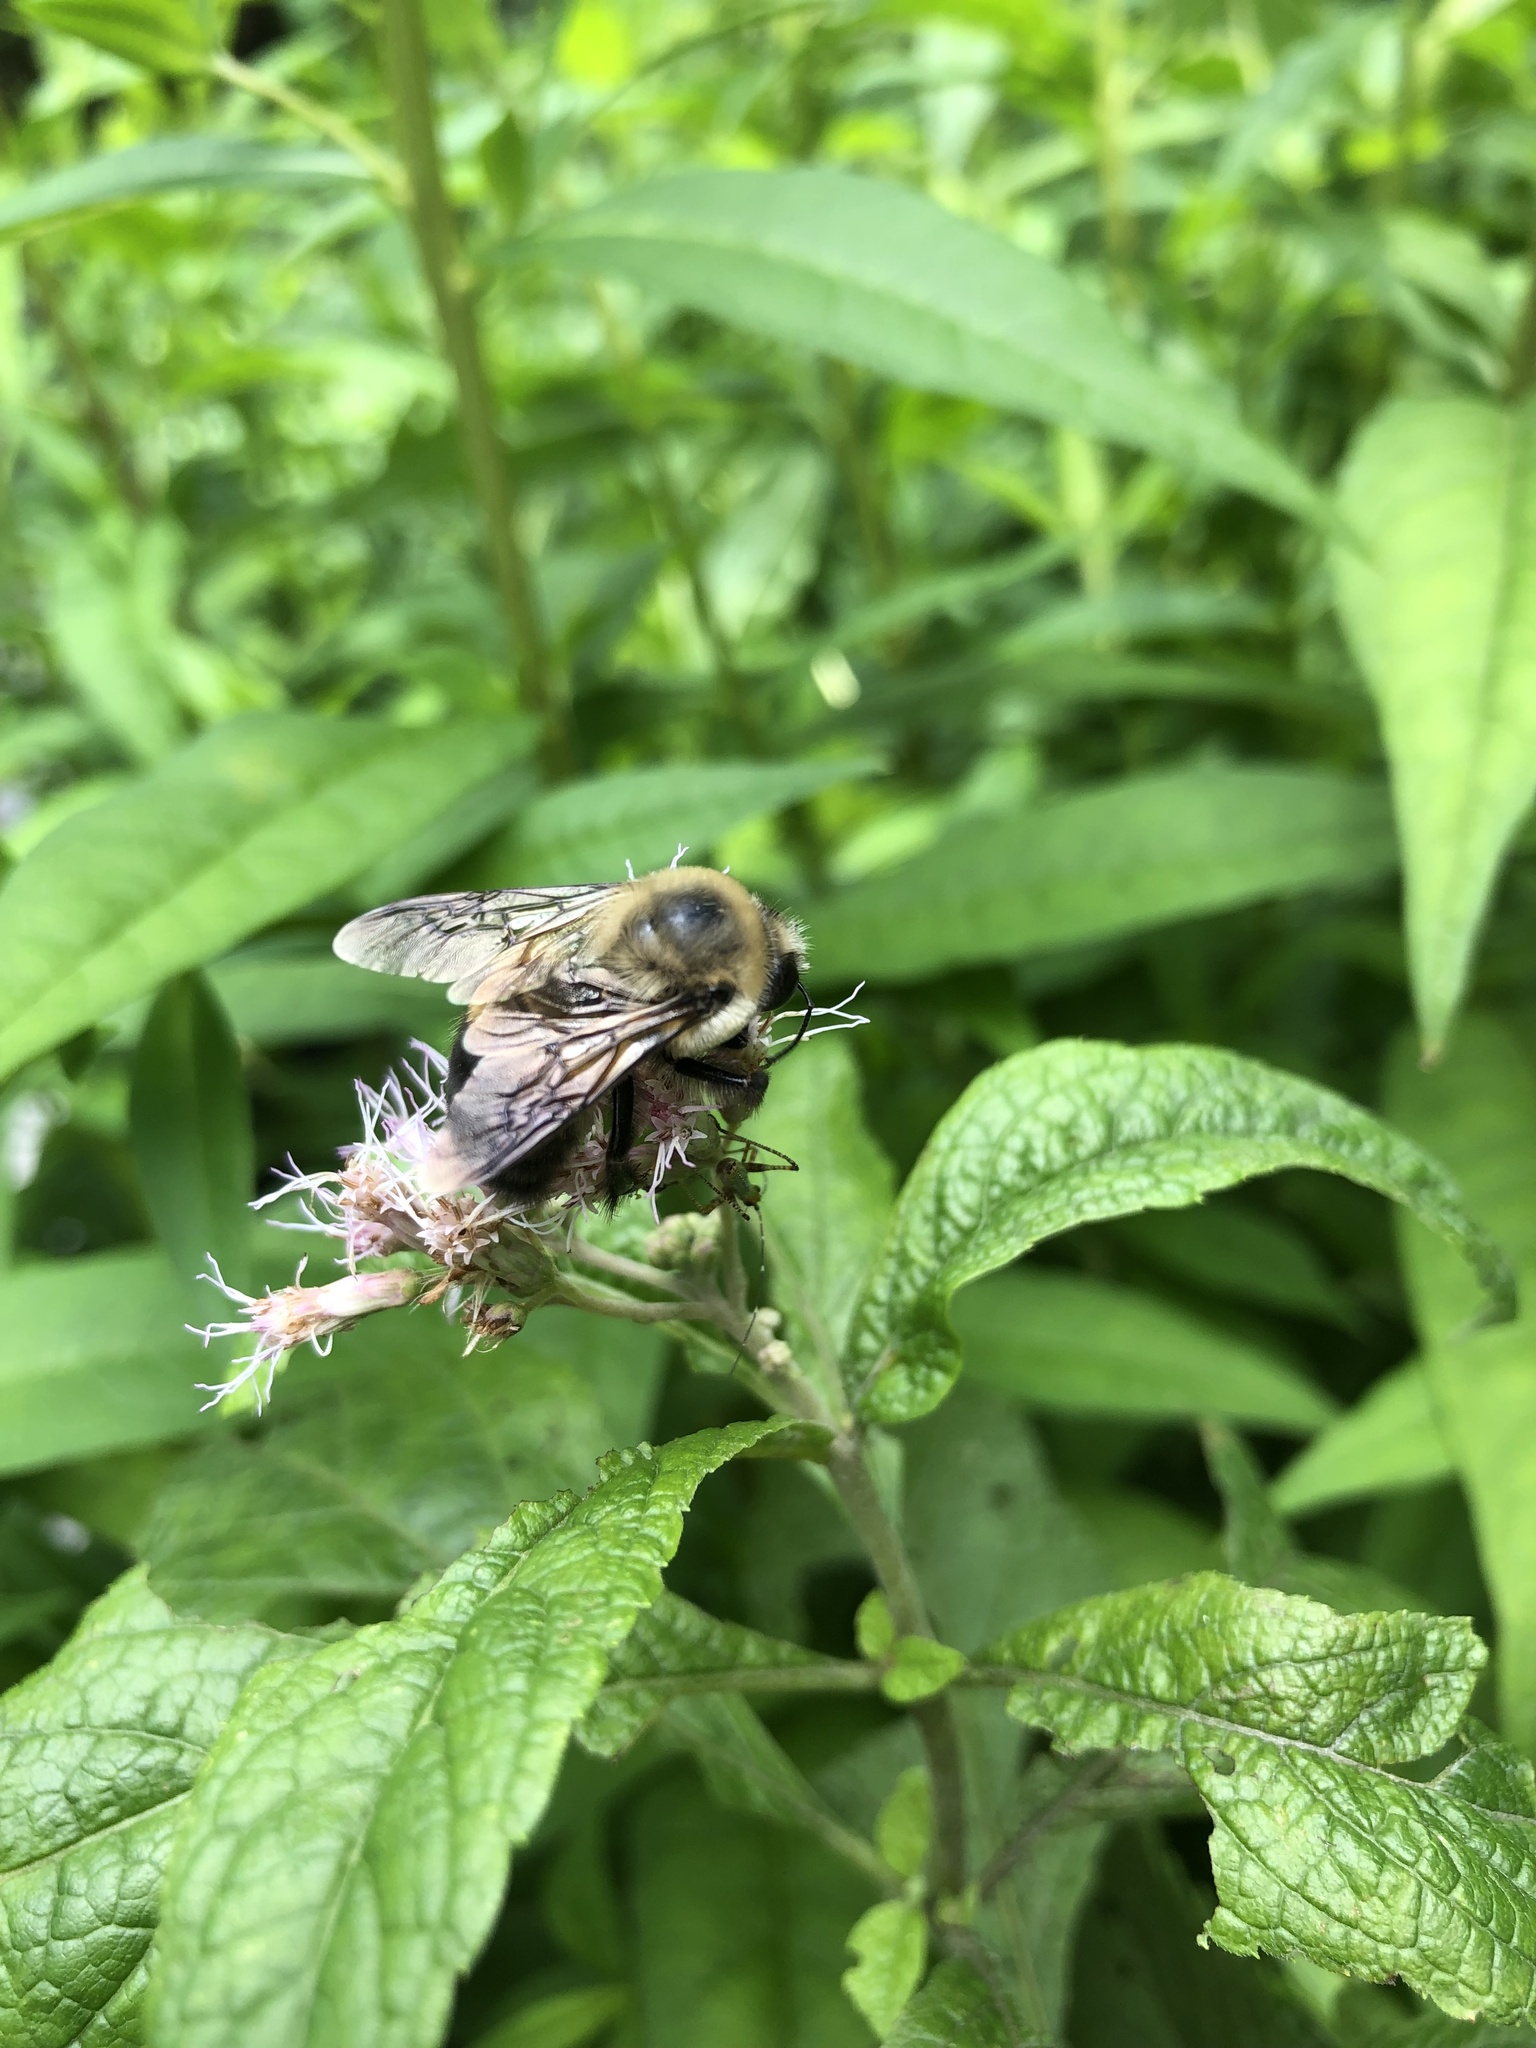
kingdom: Animalia
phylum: Arthropoda
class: Insecta
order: Hymenoptera
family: Apidae
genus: Bombus
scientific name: Bombus griseocollis
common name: Brown-belted bumble bee
